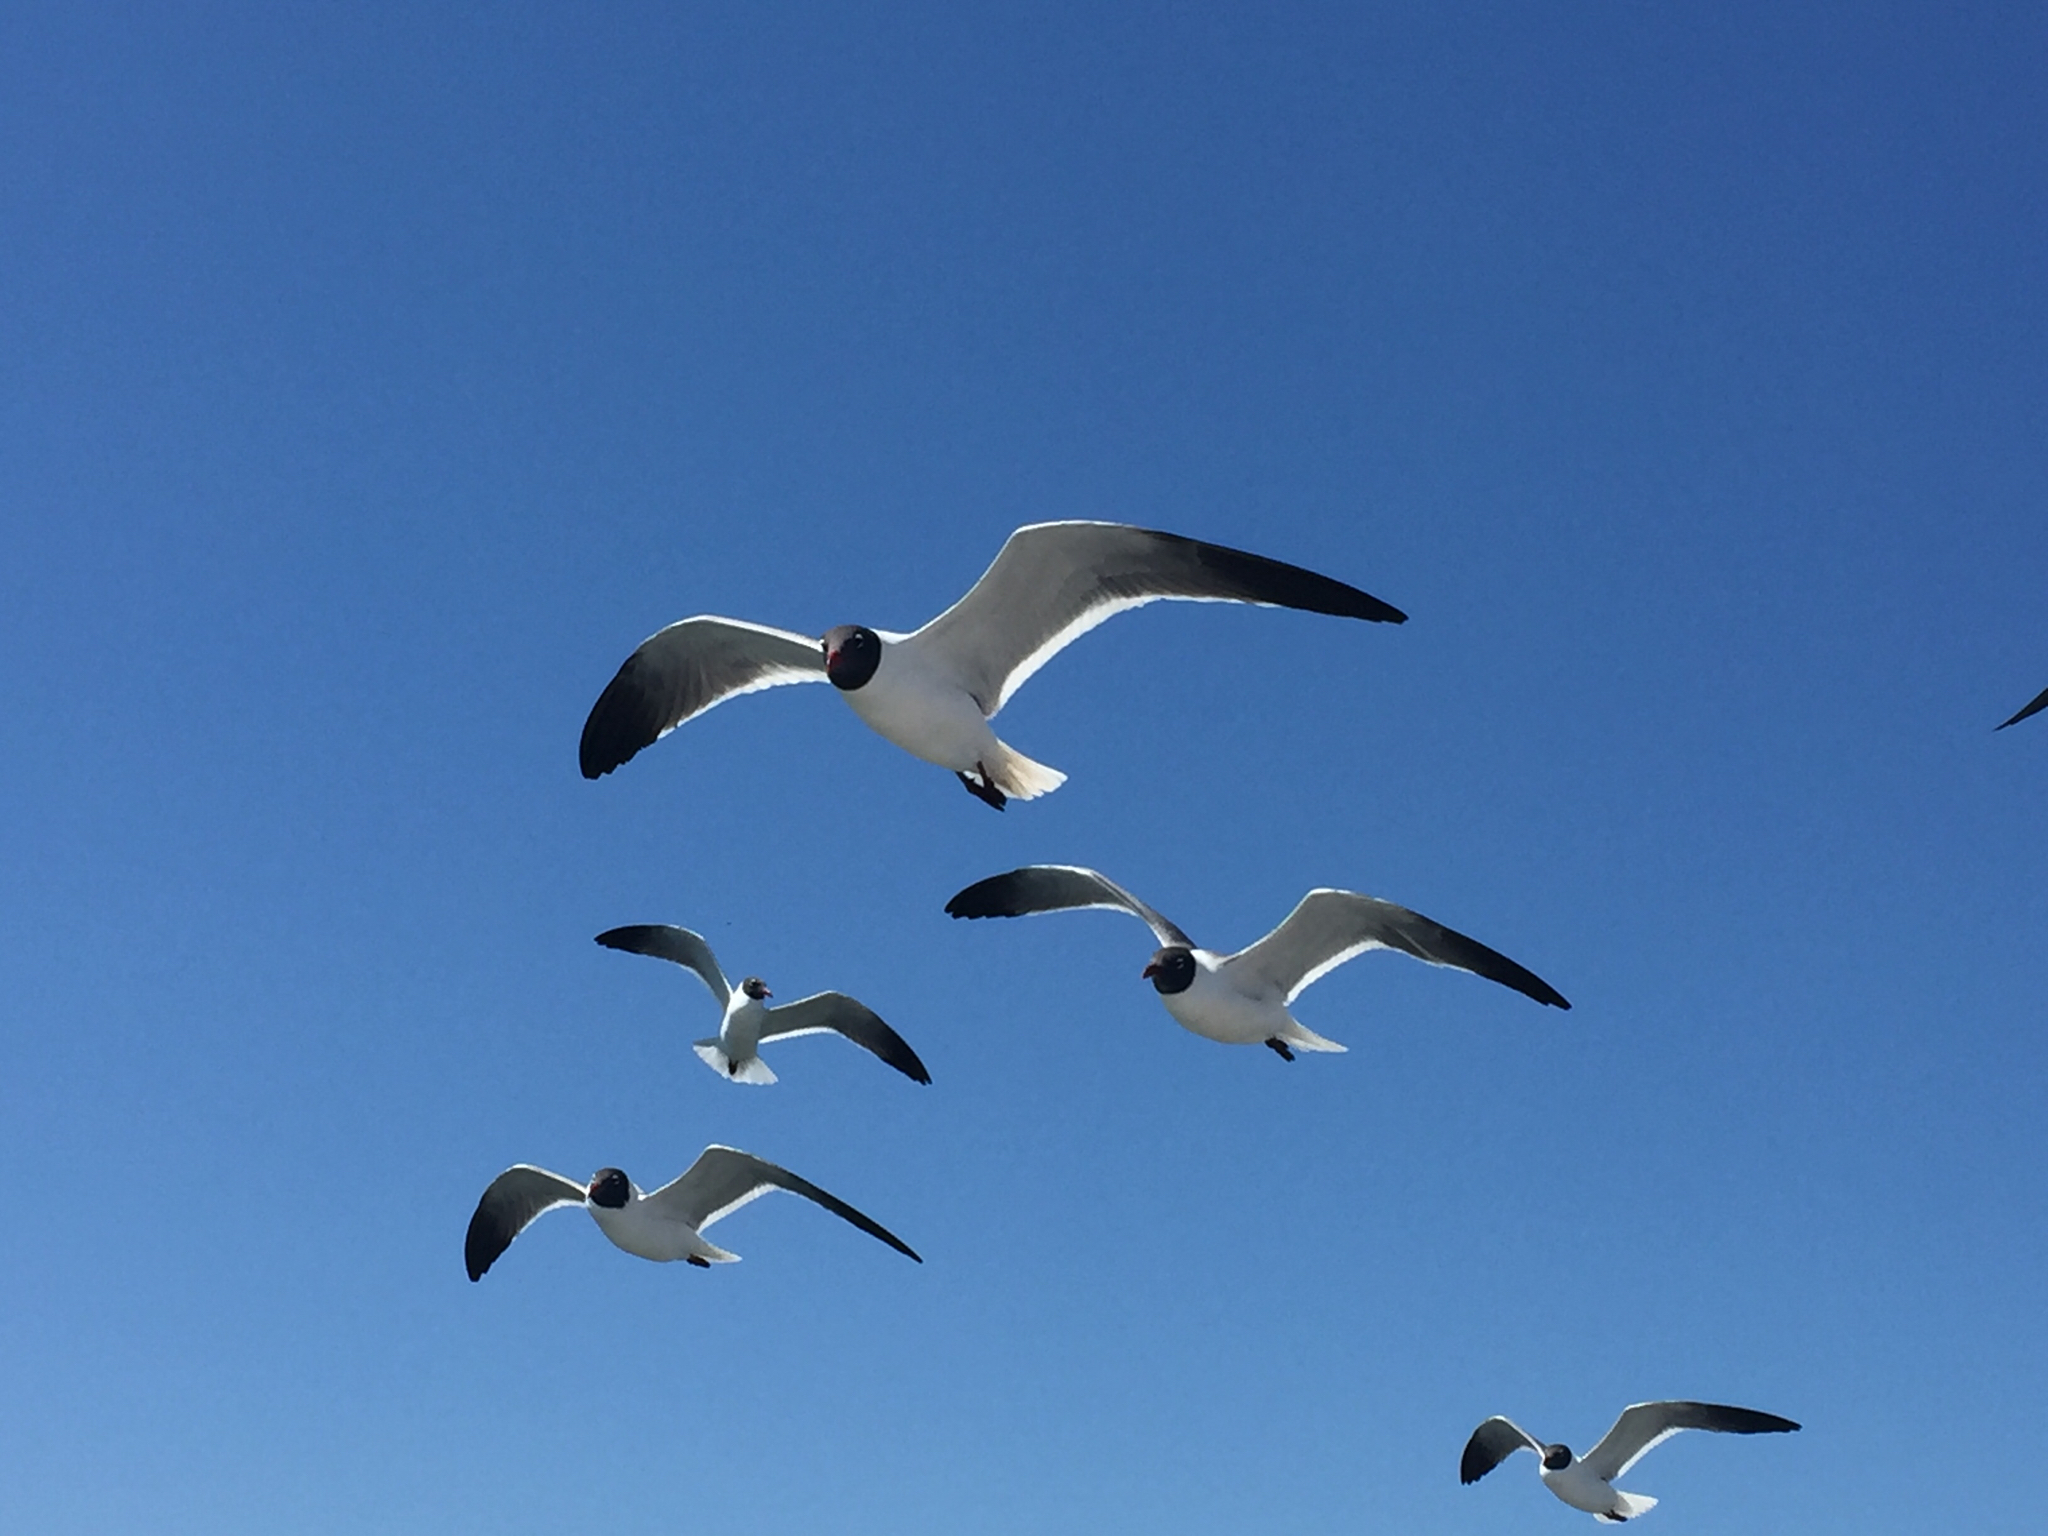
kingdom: Animalia
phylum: Chordata
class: Aves
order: Charadriiformes
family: Laridae
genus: Leucophaeus
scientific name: Leucophaeus atricilla
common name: Laughing gull
